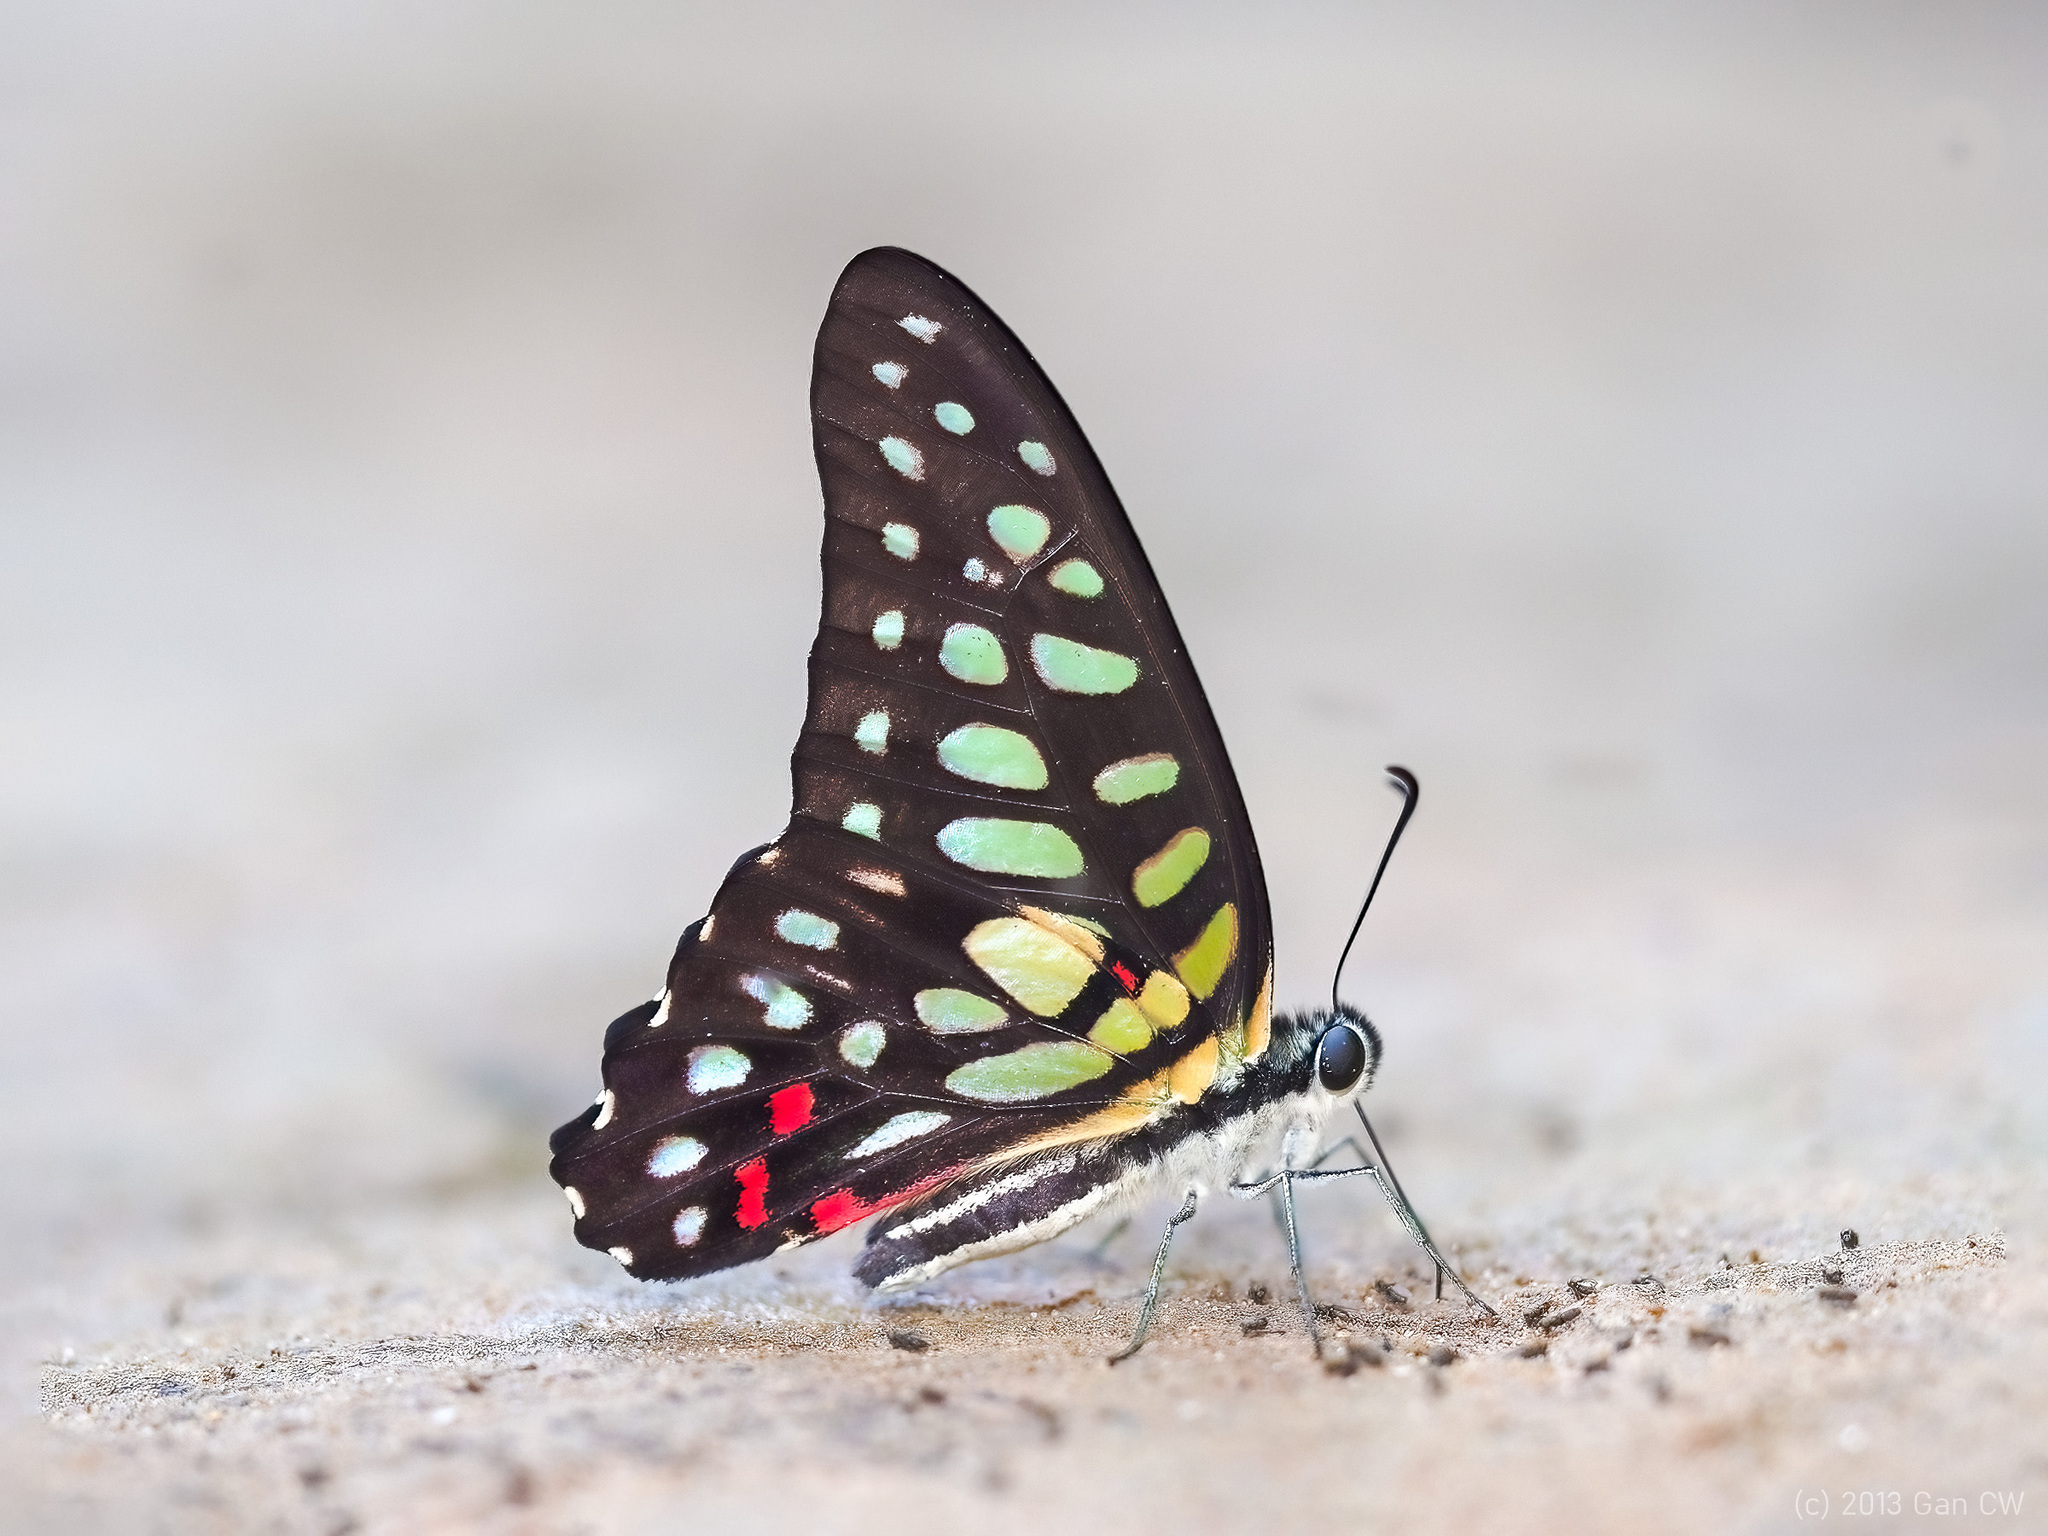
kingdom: Animalia
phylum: Arthropoda
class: Insecta
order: Lepidoptera
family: Papilionidae
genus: Graphium
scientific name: Graphium arycles
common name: Spotted jay
